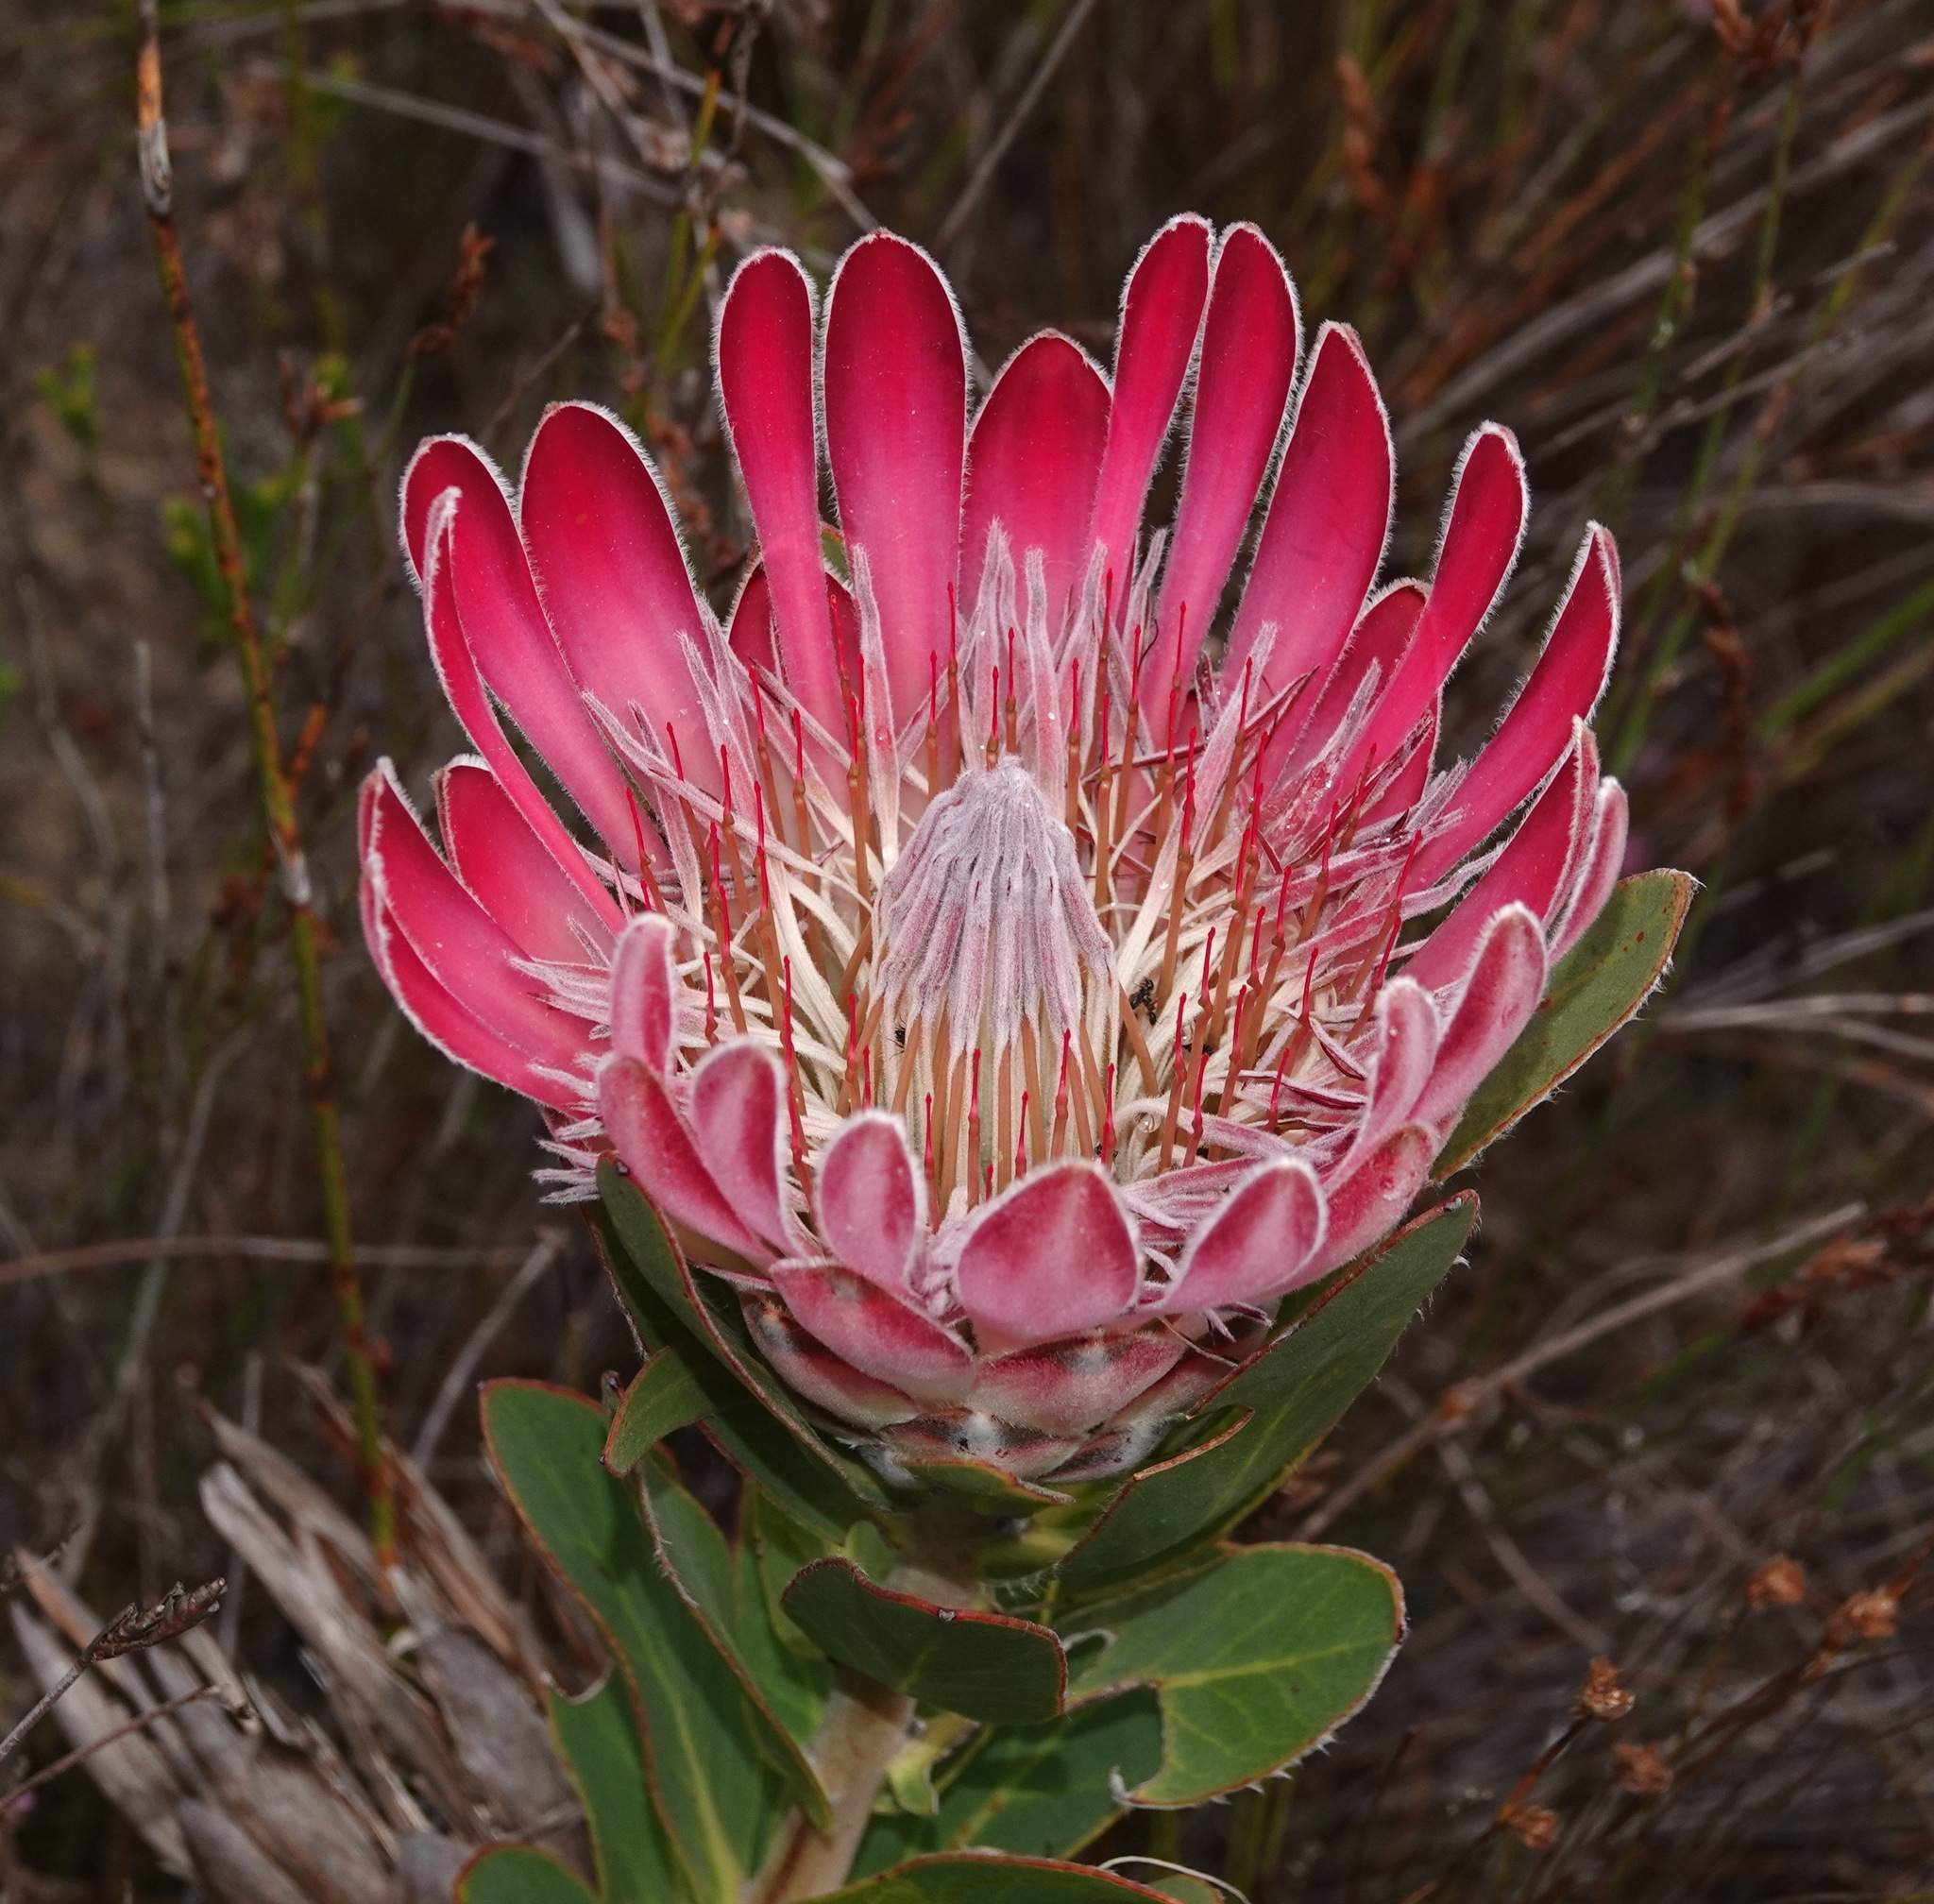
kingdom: Plantae
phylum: Tracheophyta
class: Magnoliopsida
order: Proteales
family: Proteaceae
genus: Protea
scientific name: Protea compacta
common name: Bot river protea
